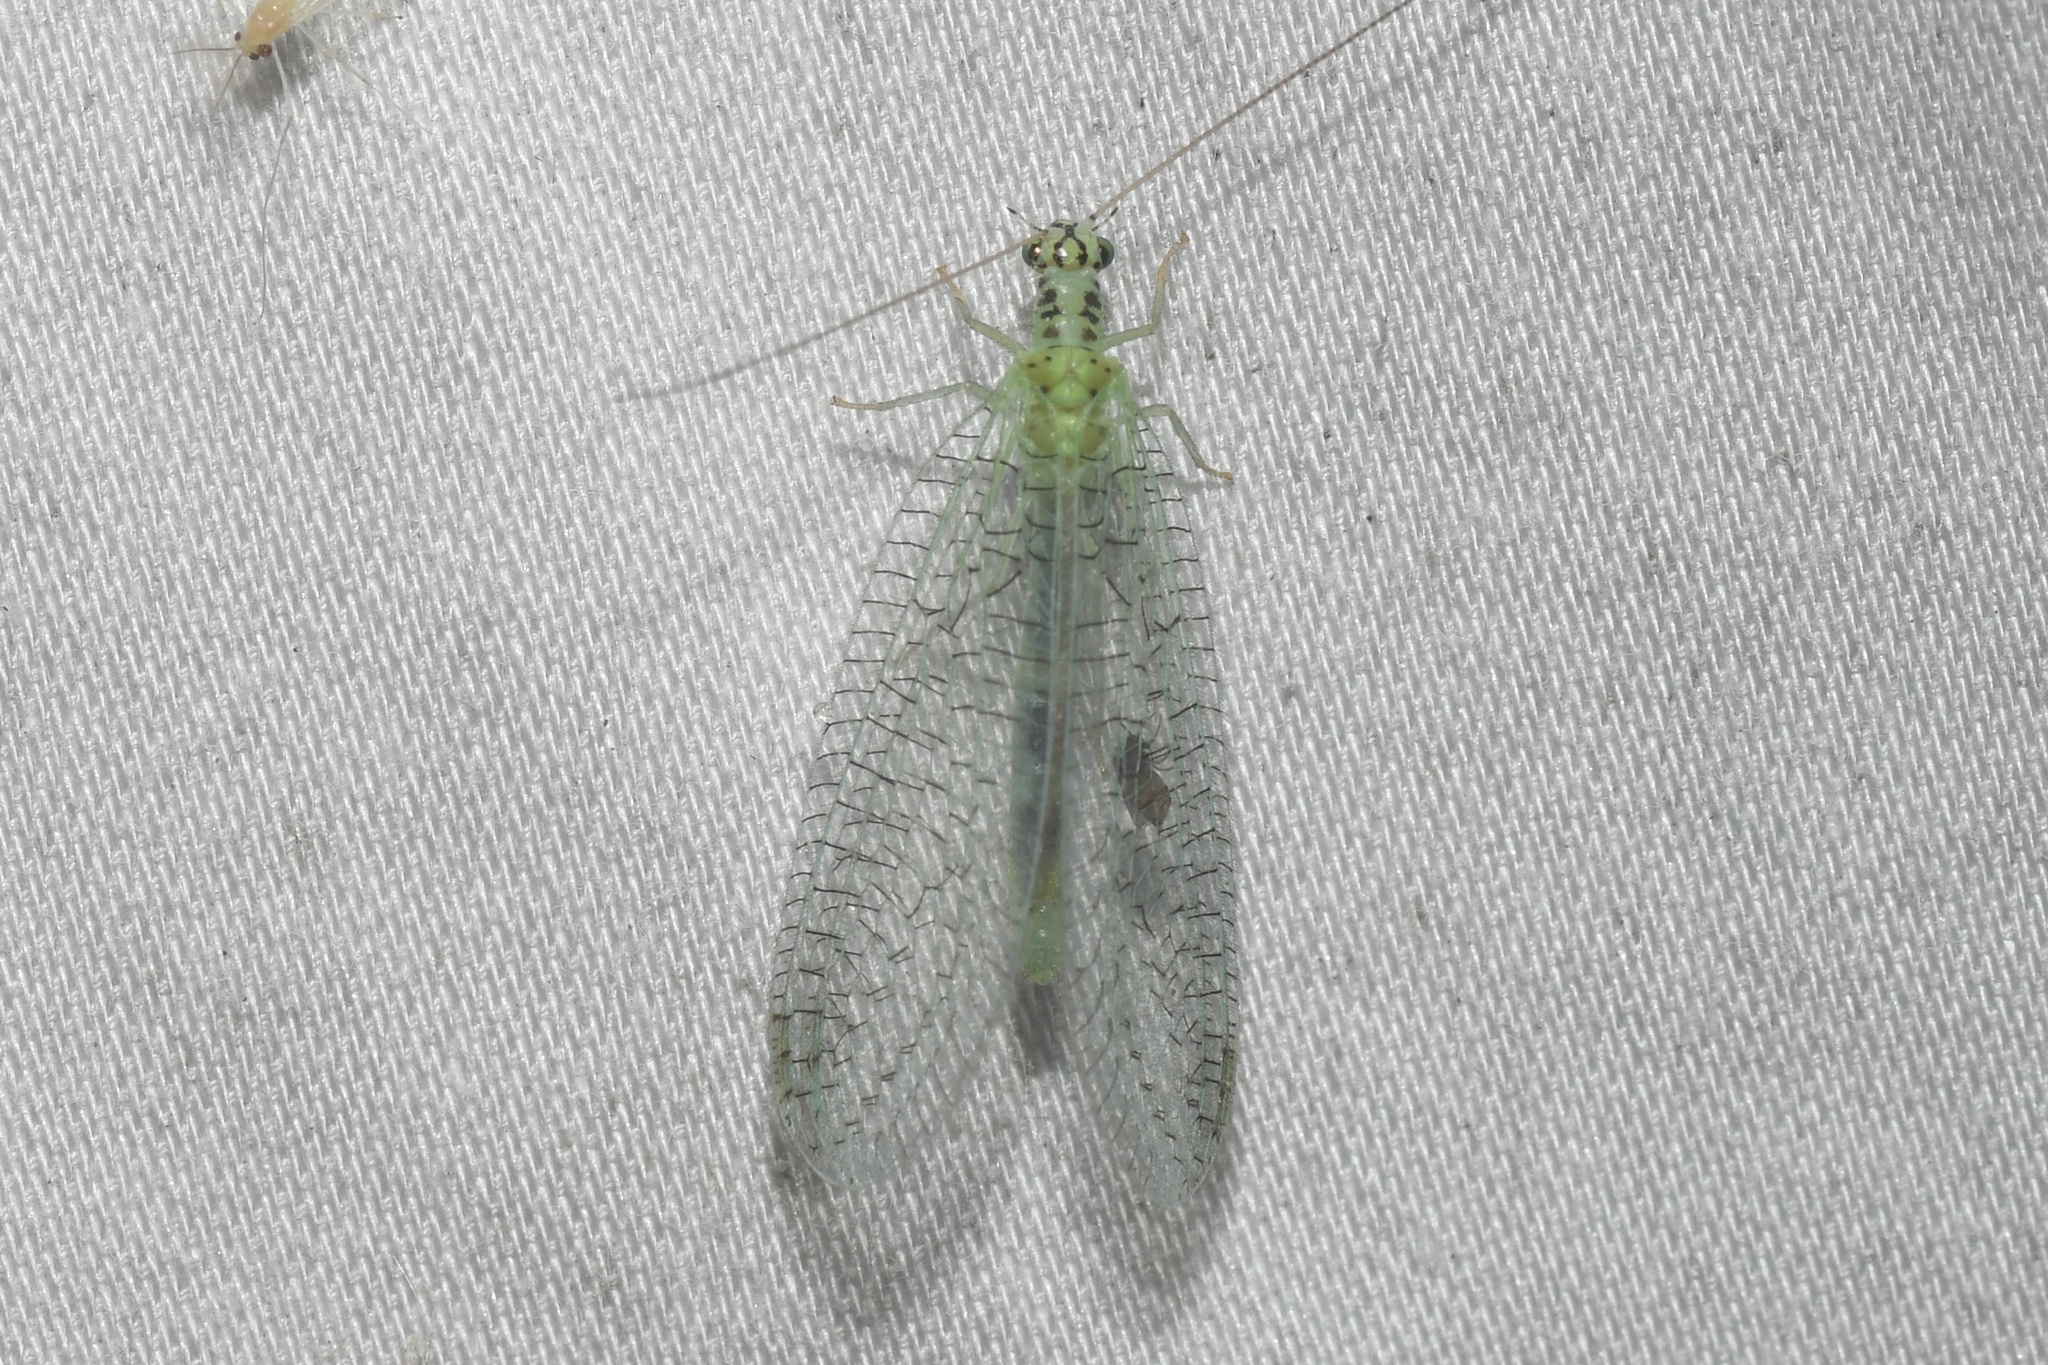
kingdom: Animalia
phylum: Arthropoda
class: Insecta
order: Neuroptera
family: Chrysopidae
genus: Chrysopa
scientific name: Chrysopa chi
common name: X-marked green lacewing
